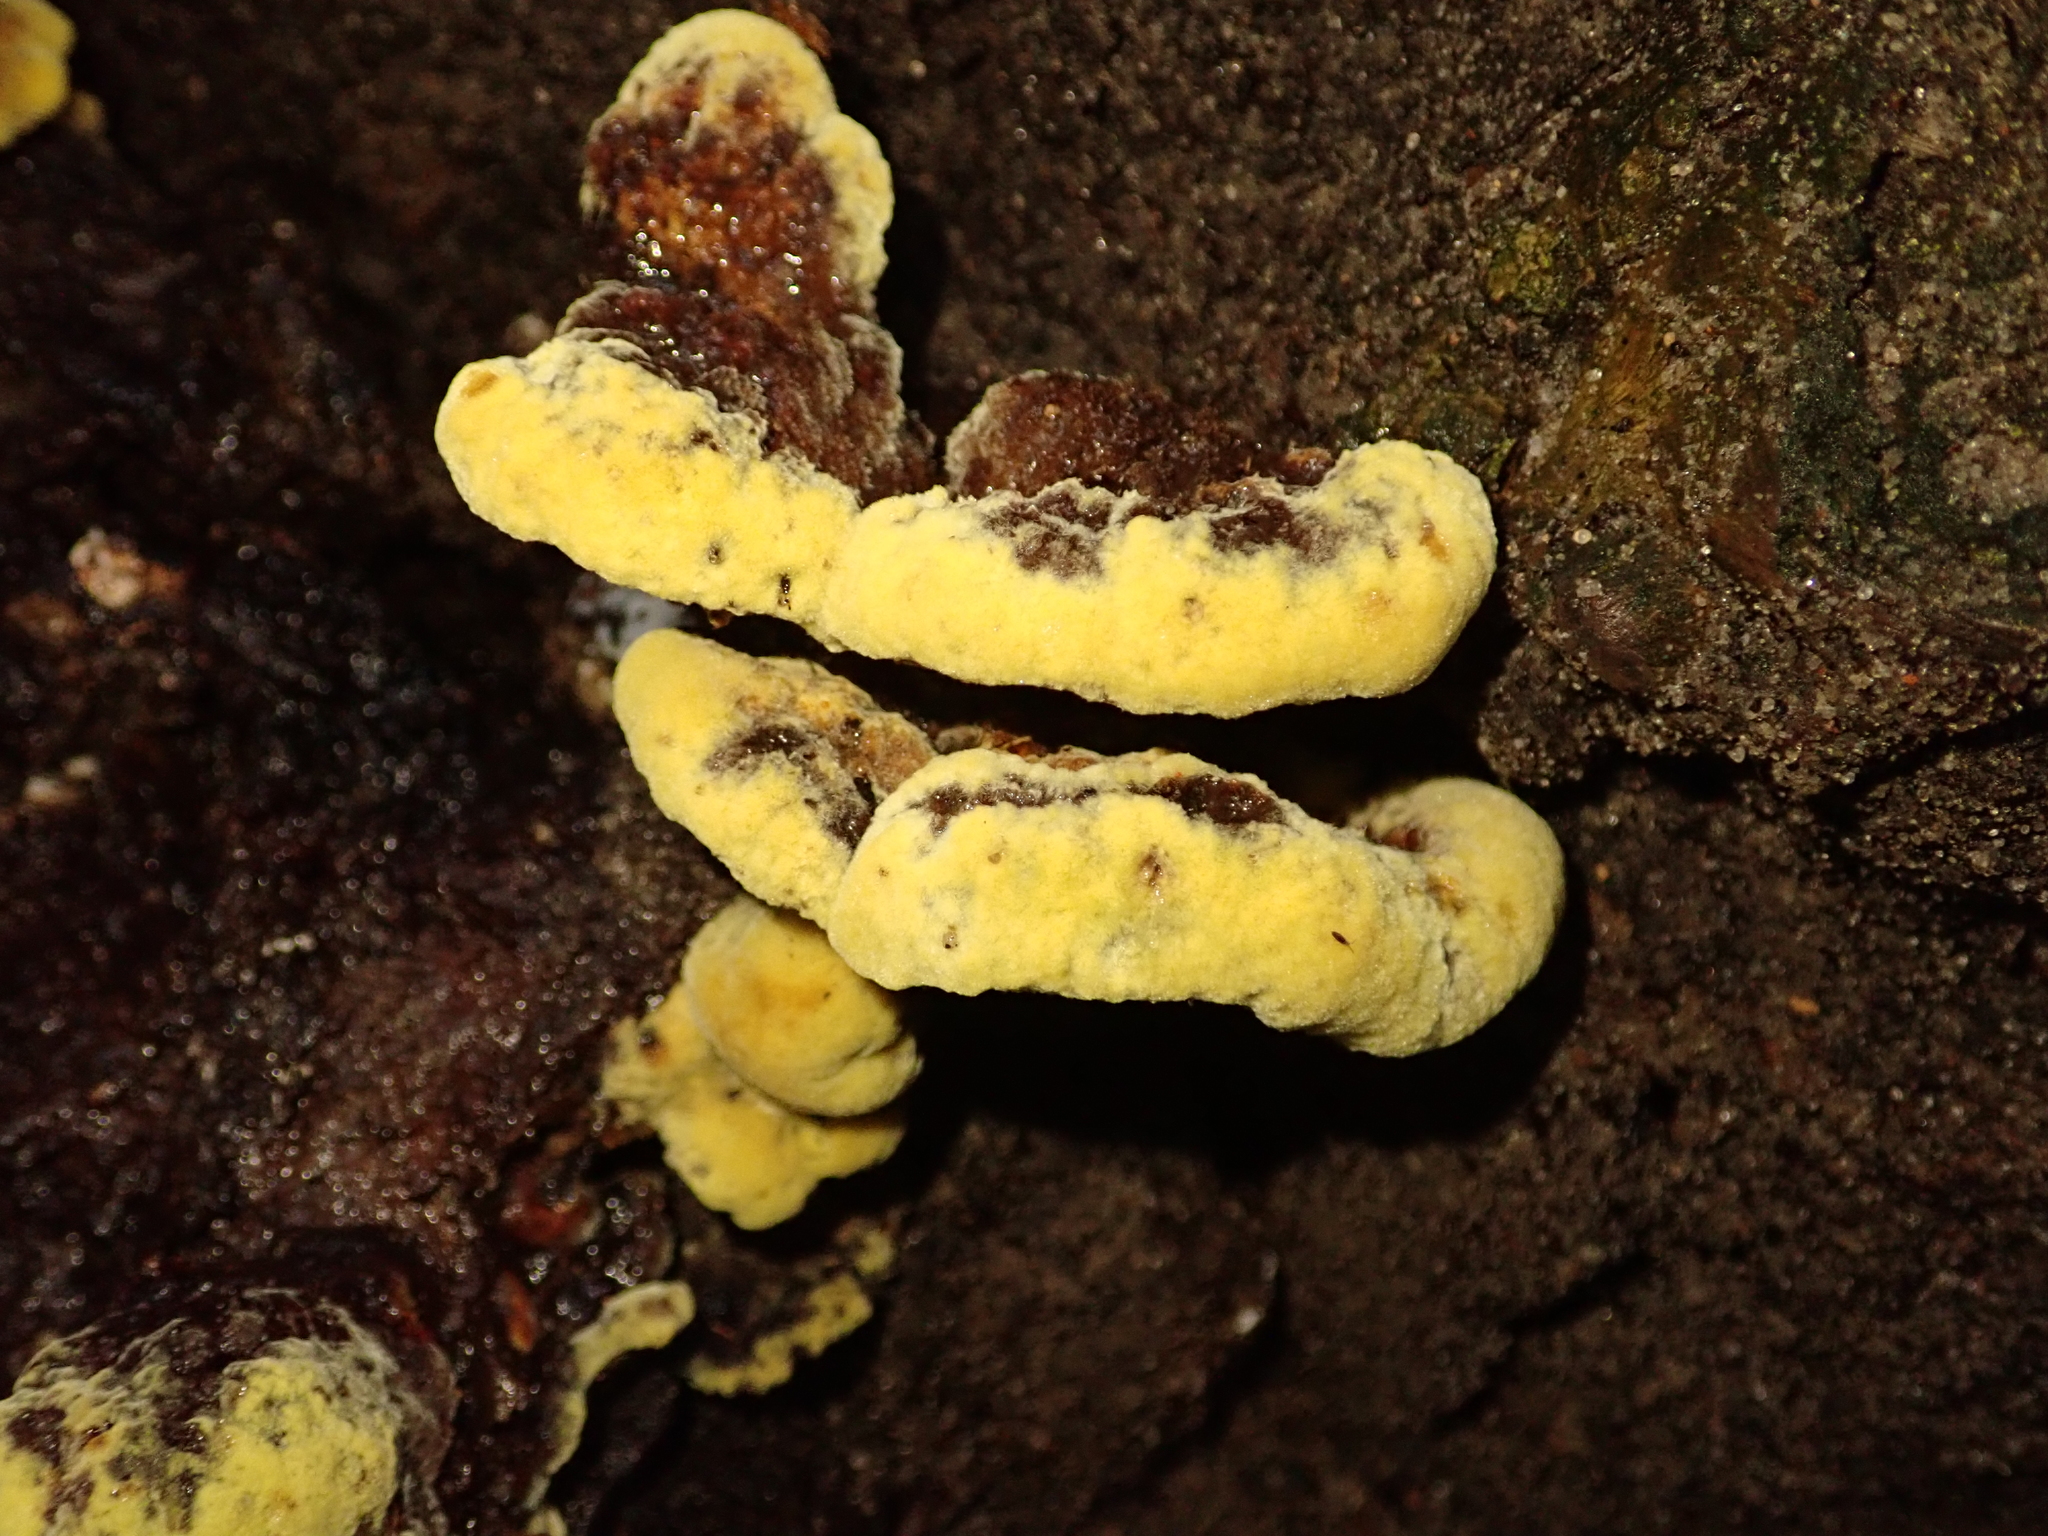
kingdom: Fungi
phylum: Basidiomycota
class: Agaricomycetes
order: Polyporales
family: Laetiporaceae
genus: Phaeolus
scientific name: Phaeolus schweinitzii
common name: Dyer's mazegill
